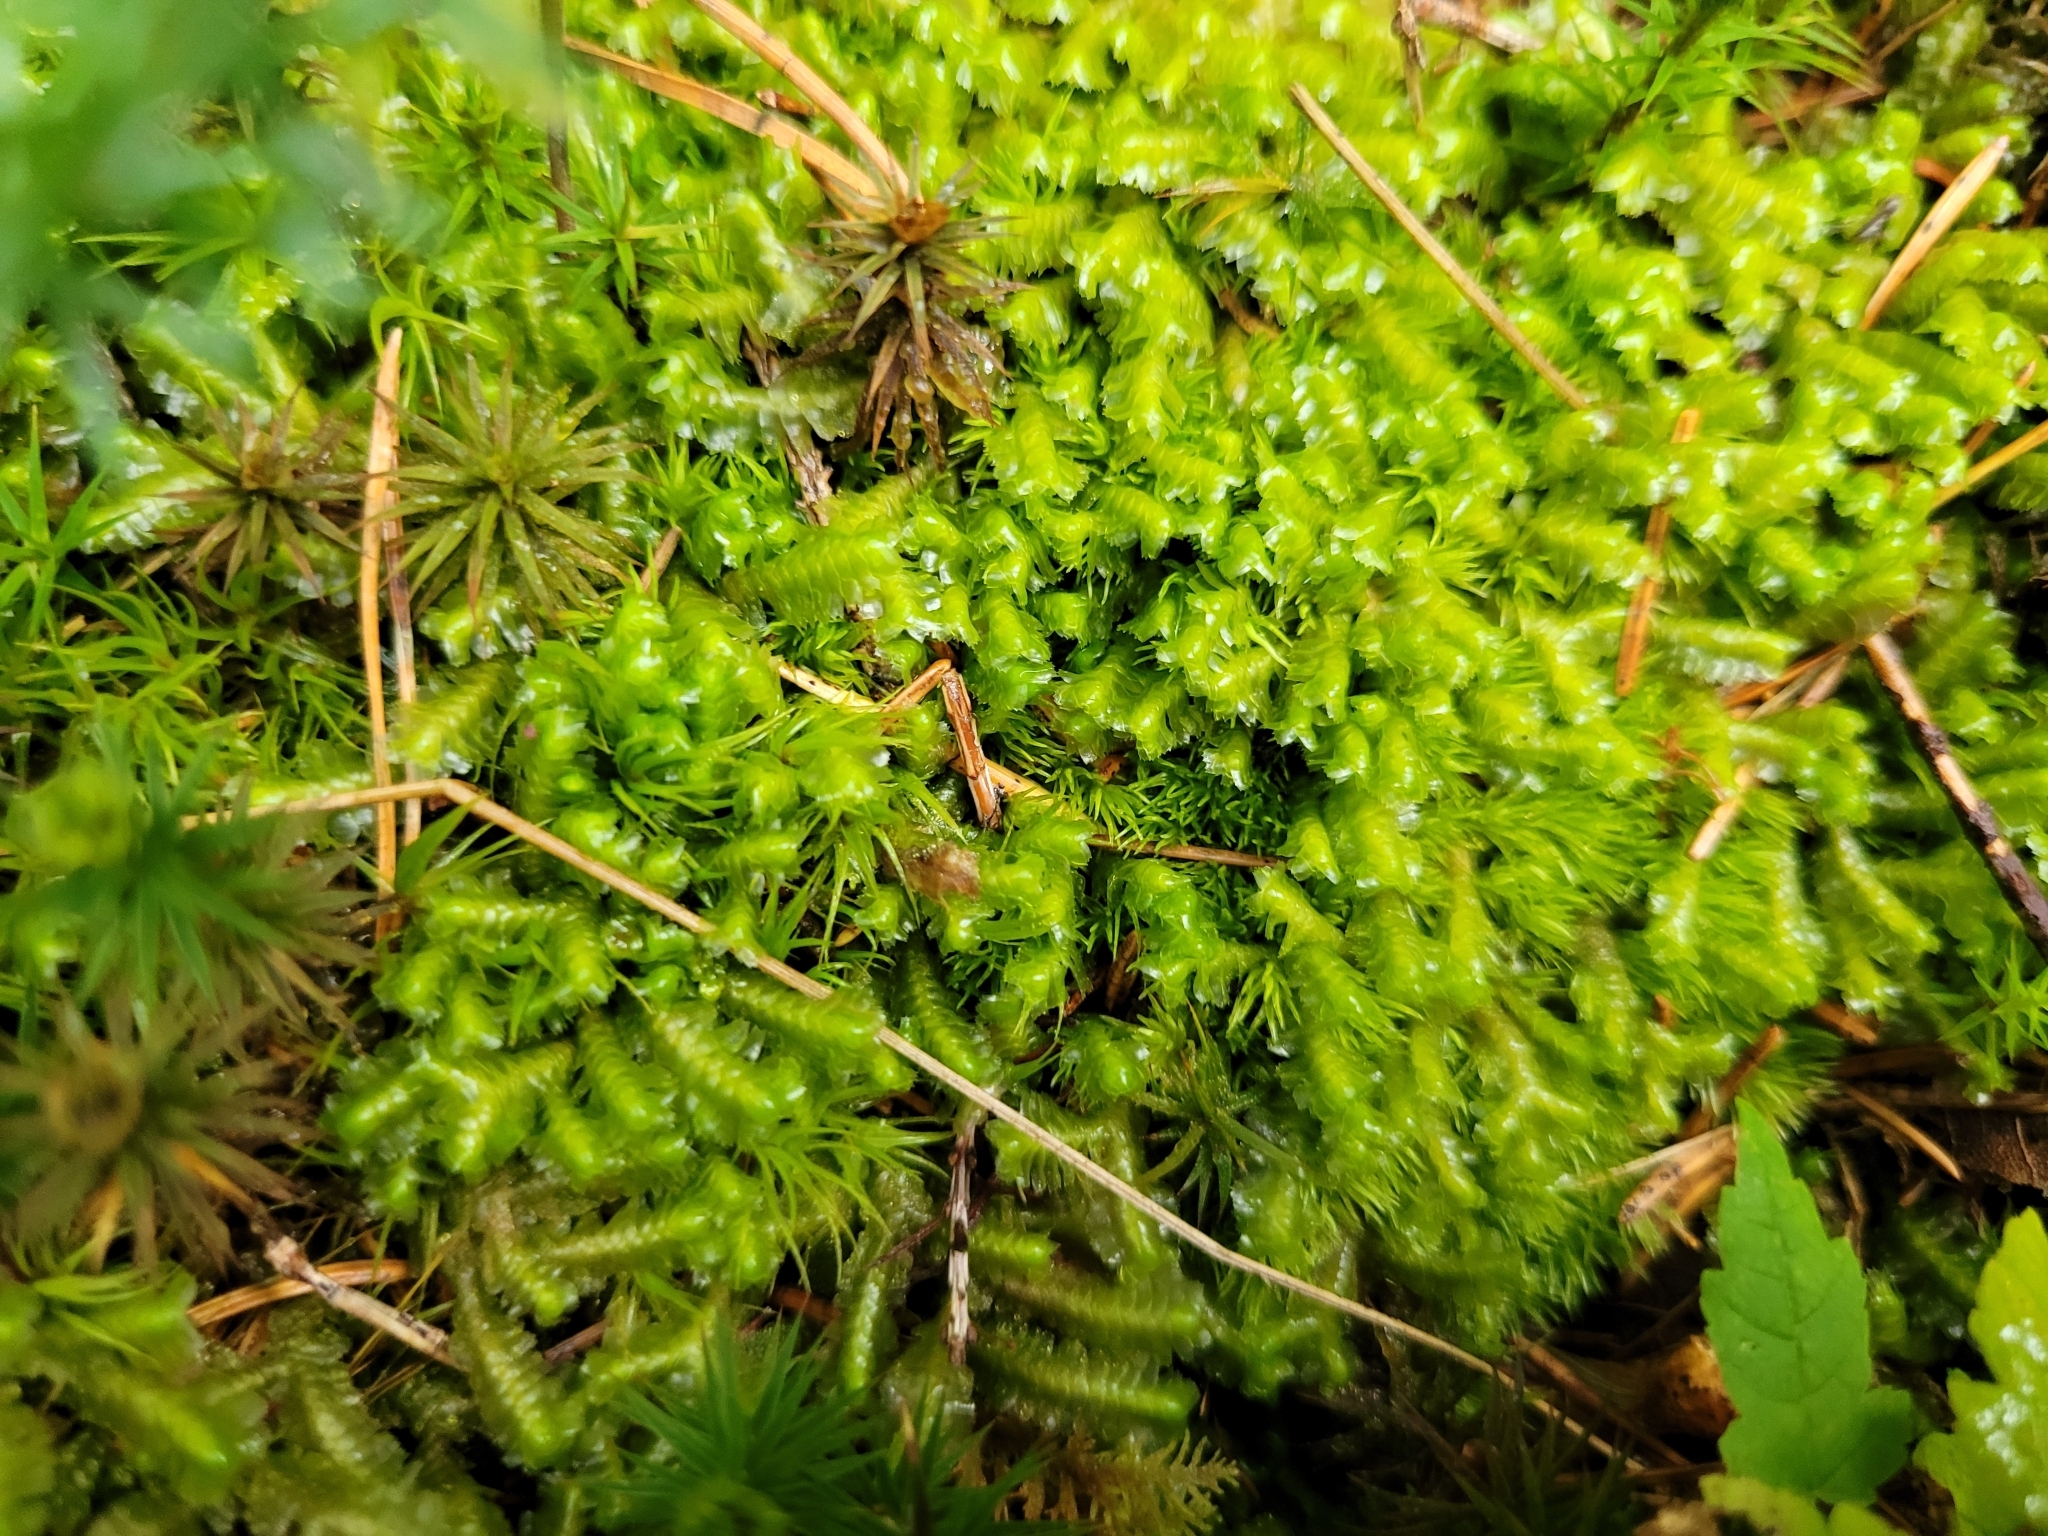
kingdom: Plantae
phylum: Marchantiophyta
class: Jungermanniopsida
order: Jungermanniales
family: Lepidoziaceae
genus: Bazzania
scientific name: Bazzania trilobata
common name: Three-lobed whipwort
